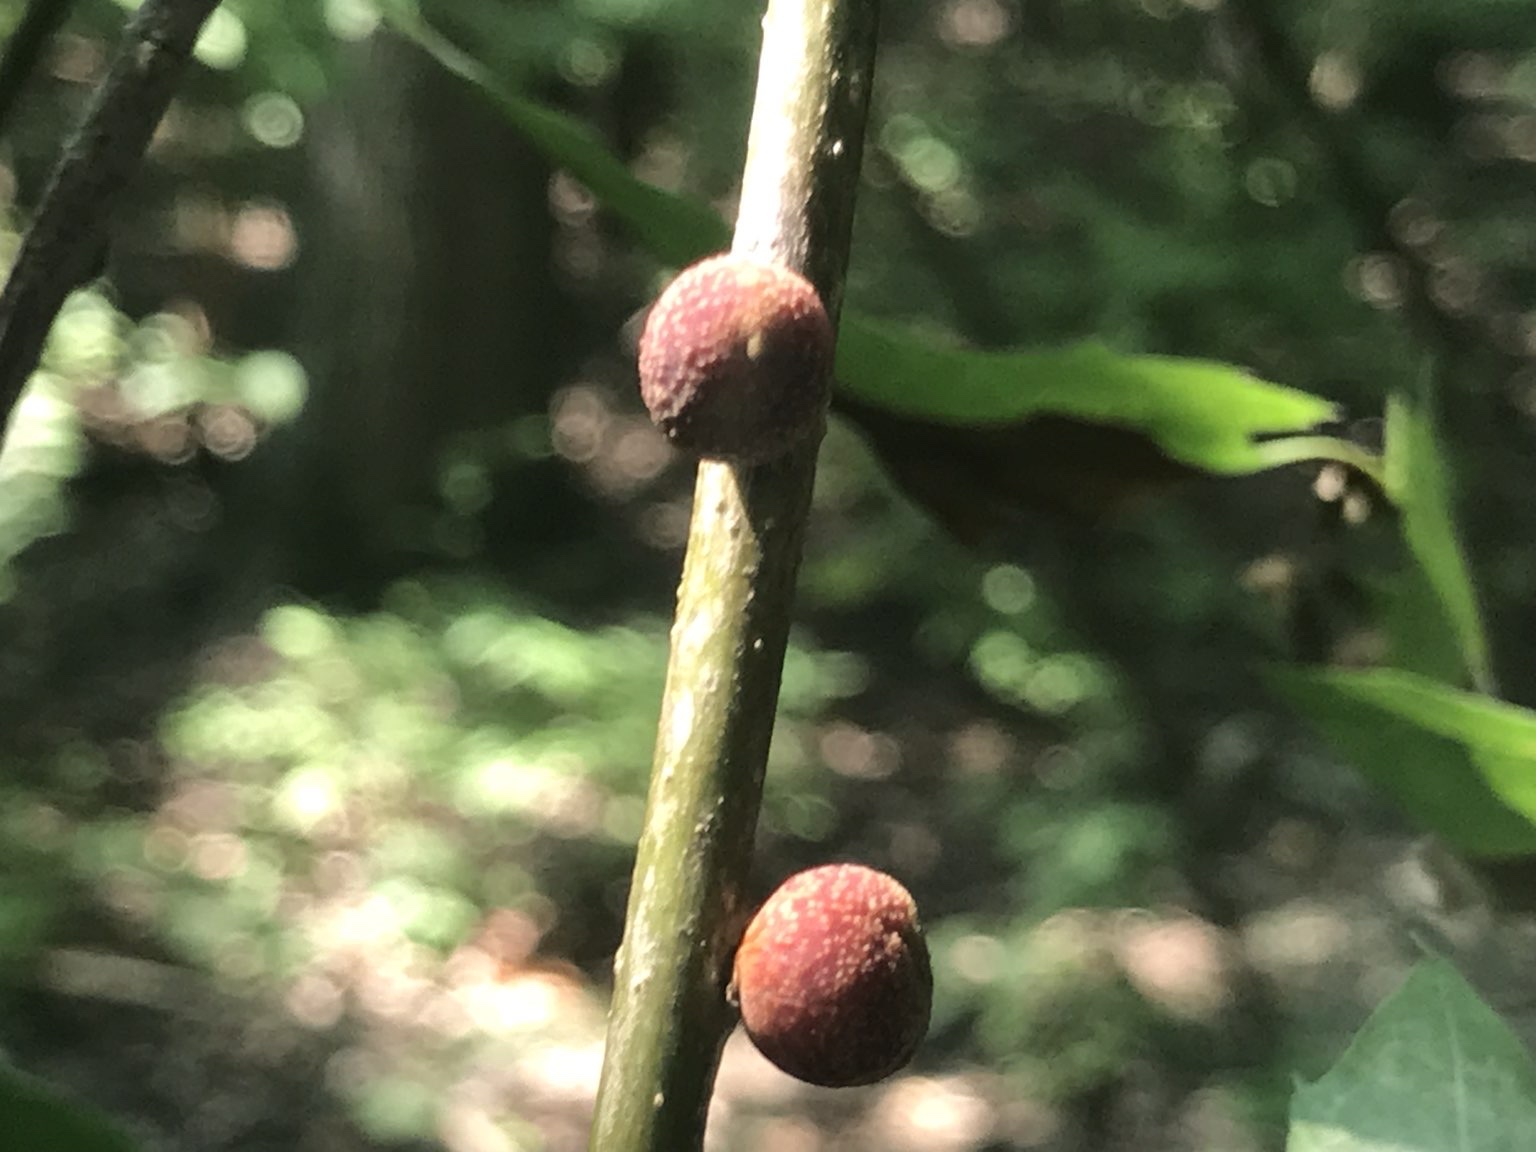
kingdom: Animalia
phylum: Arthropoda
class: Insecta
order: Hymenoptera
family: Cynipidae
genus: Kokkocynips
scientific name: Kokkocynips imbricariae
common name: Banded bullet gall wasp
